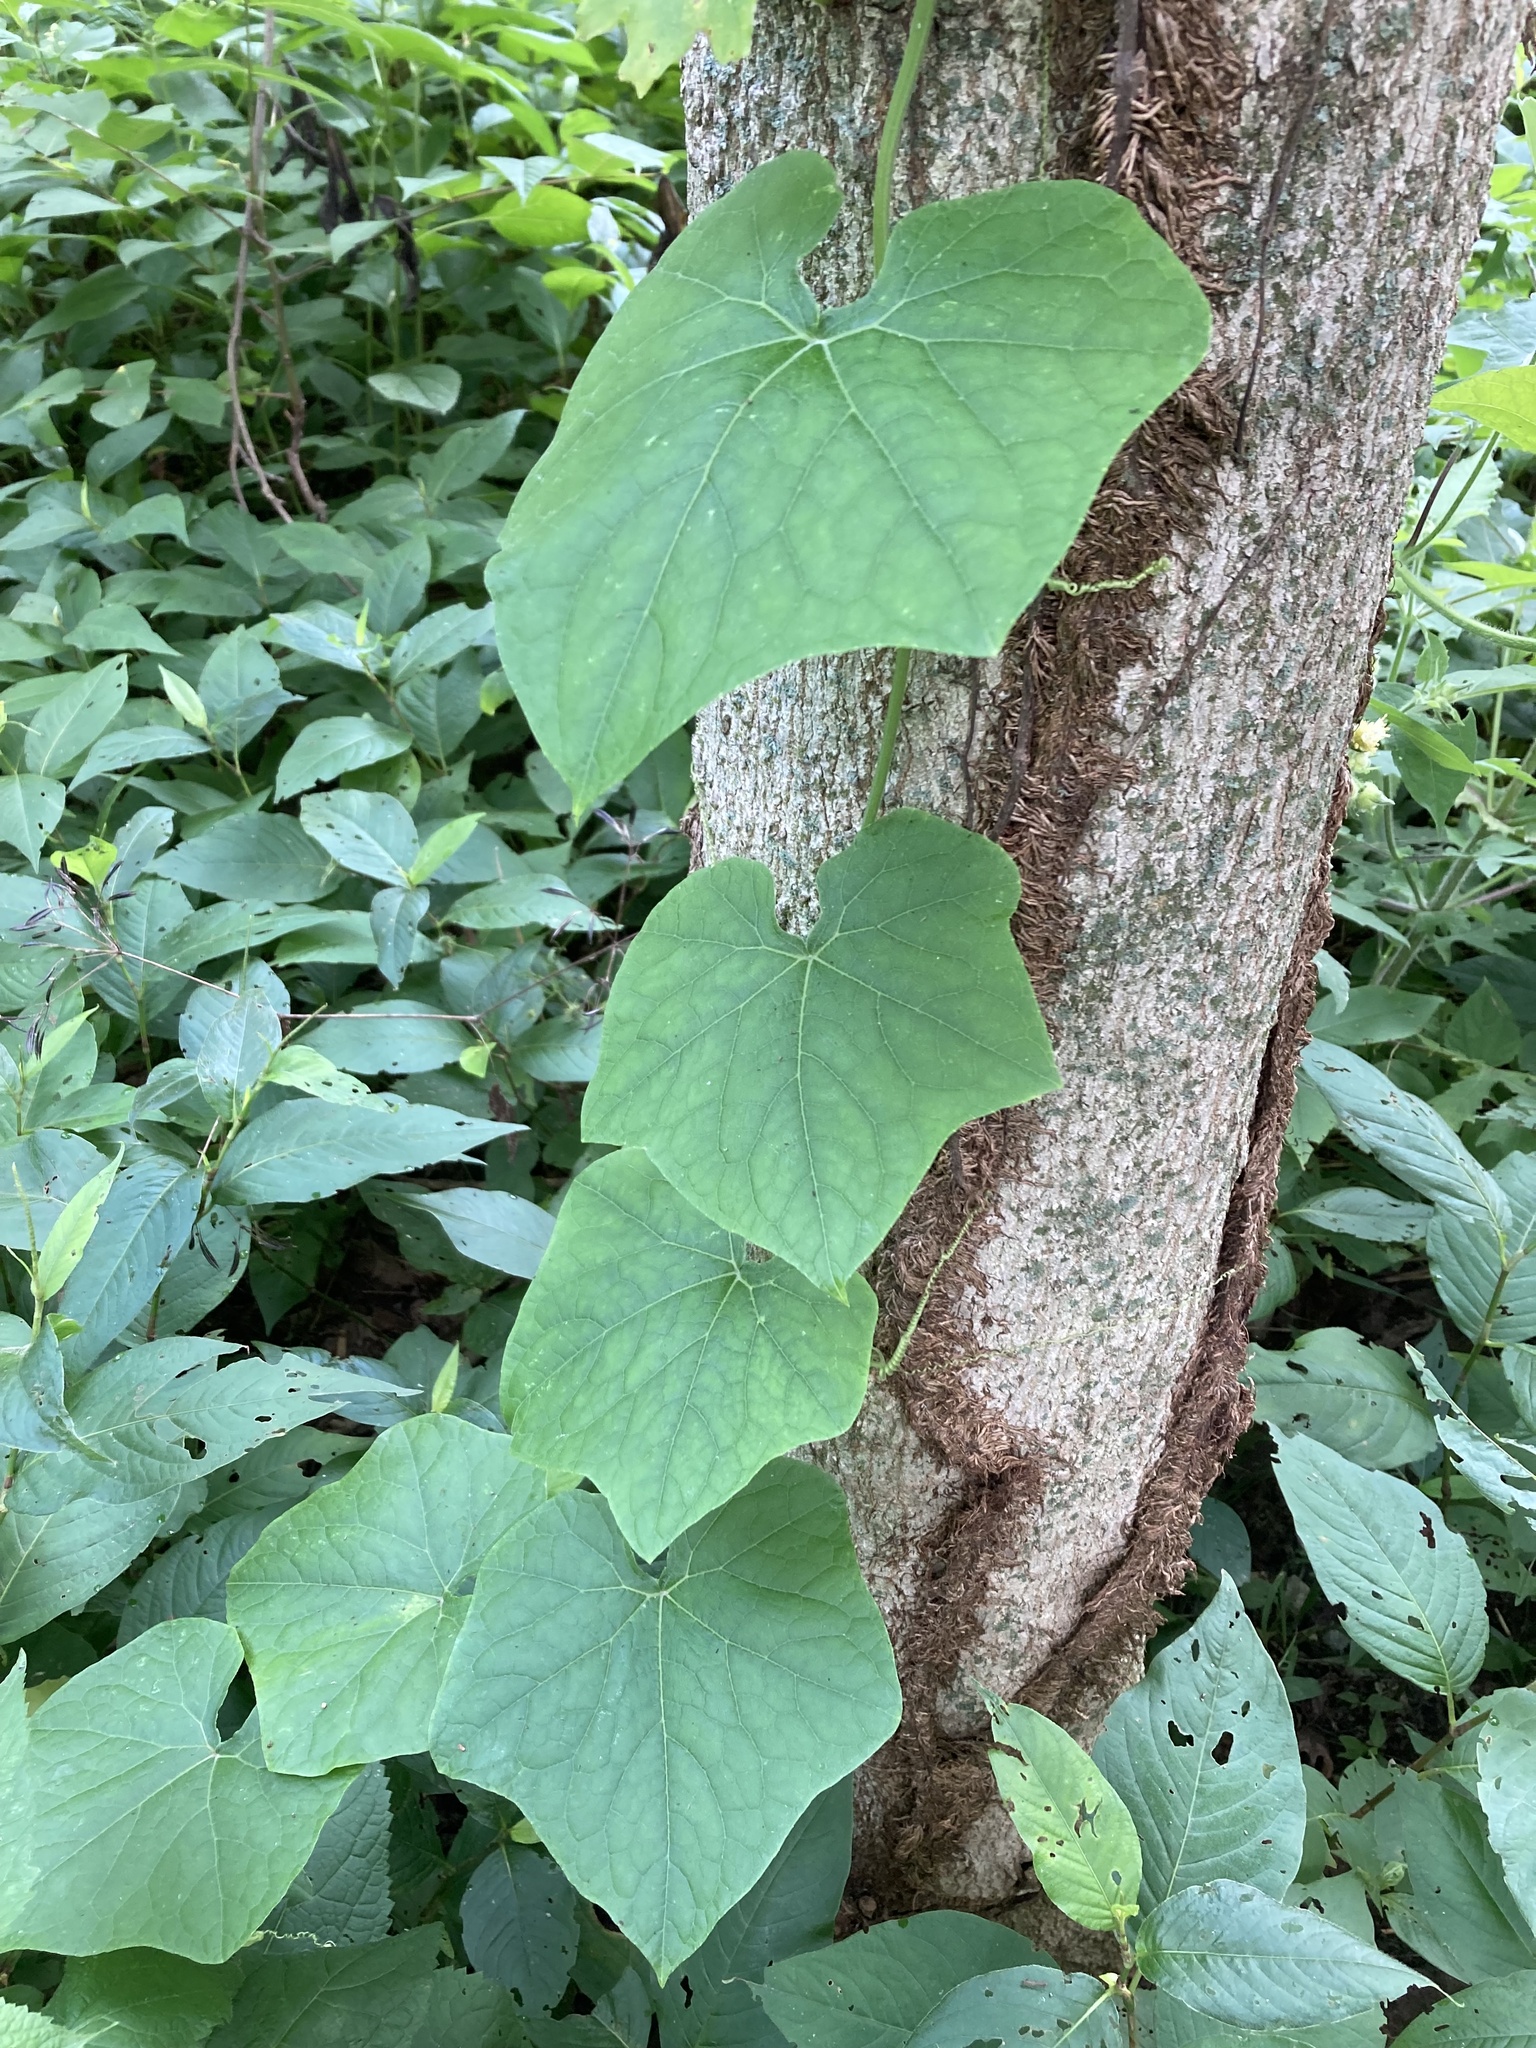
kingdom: Plantae
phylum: Tracheophyta
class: Magnoliopsida
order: Cucurbitales
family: Cucurbitaceae
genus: Sicyos
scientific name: Sicyos angulatus
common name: Angled burr cucumber
